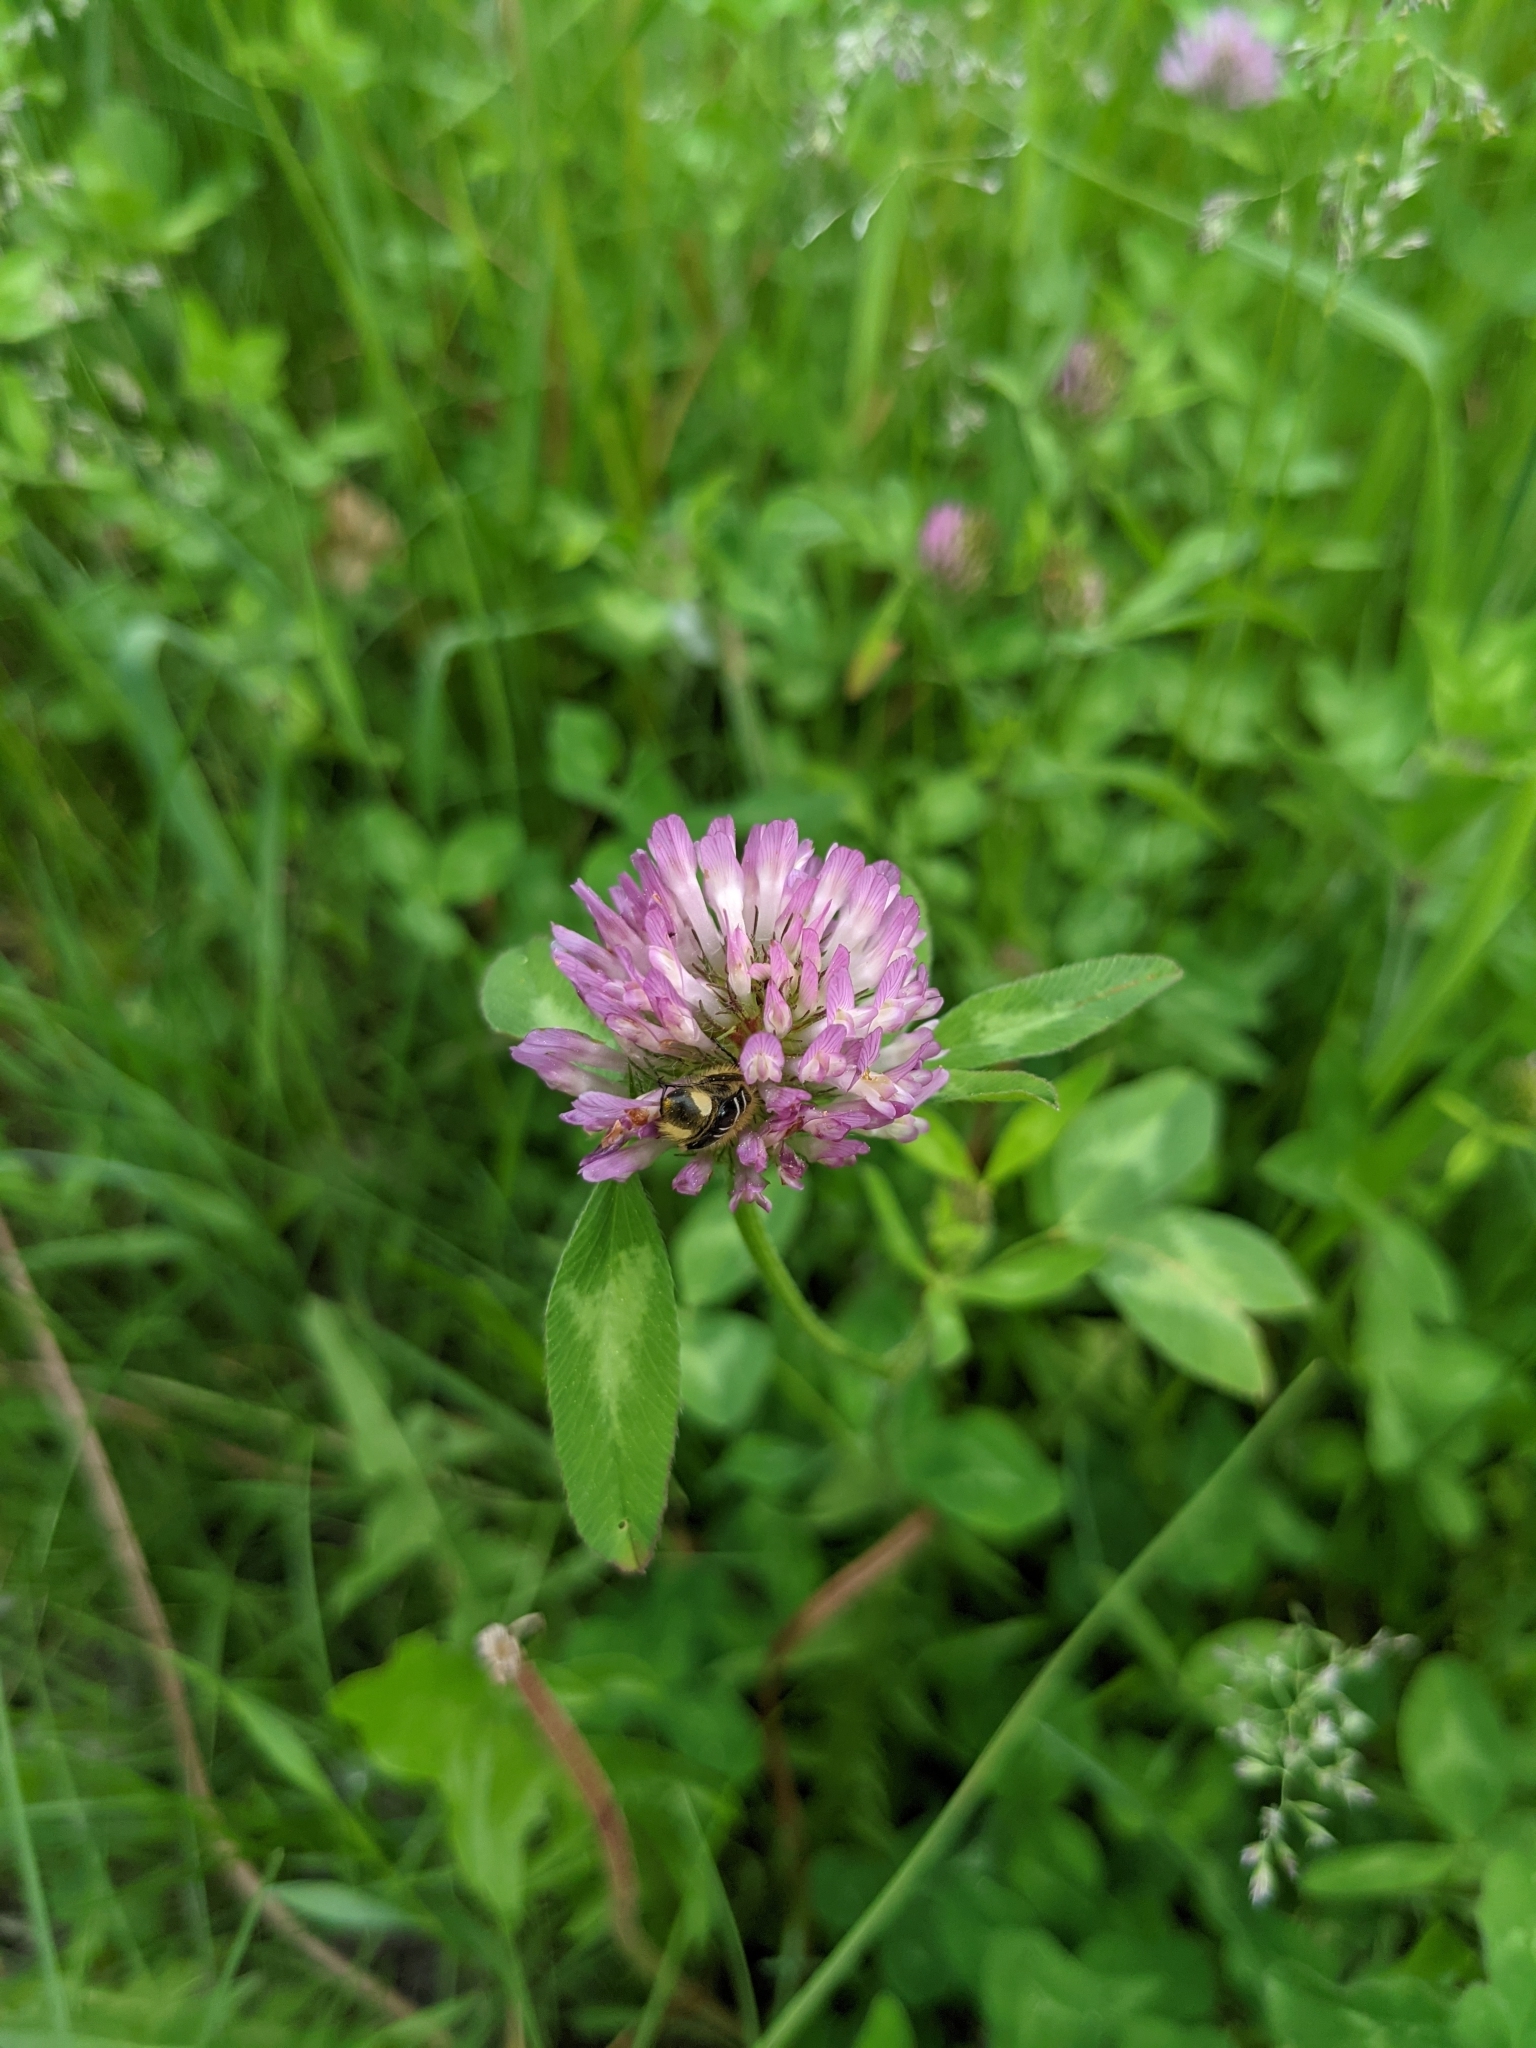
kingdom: Plantae
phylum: Tracheophyta
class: Magnoliopsida
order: Fabales
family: Fabaceae
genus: Trifolium
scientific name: Trifolium pratense
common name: Red clover
